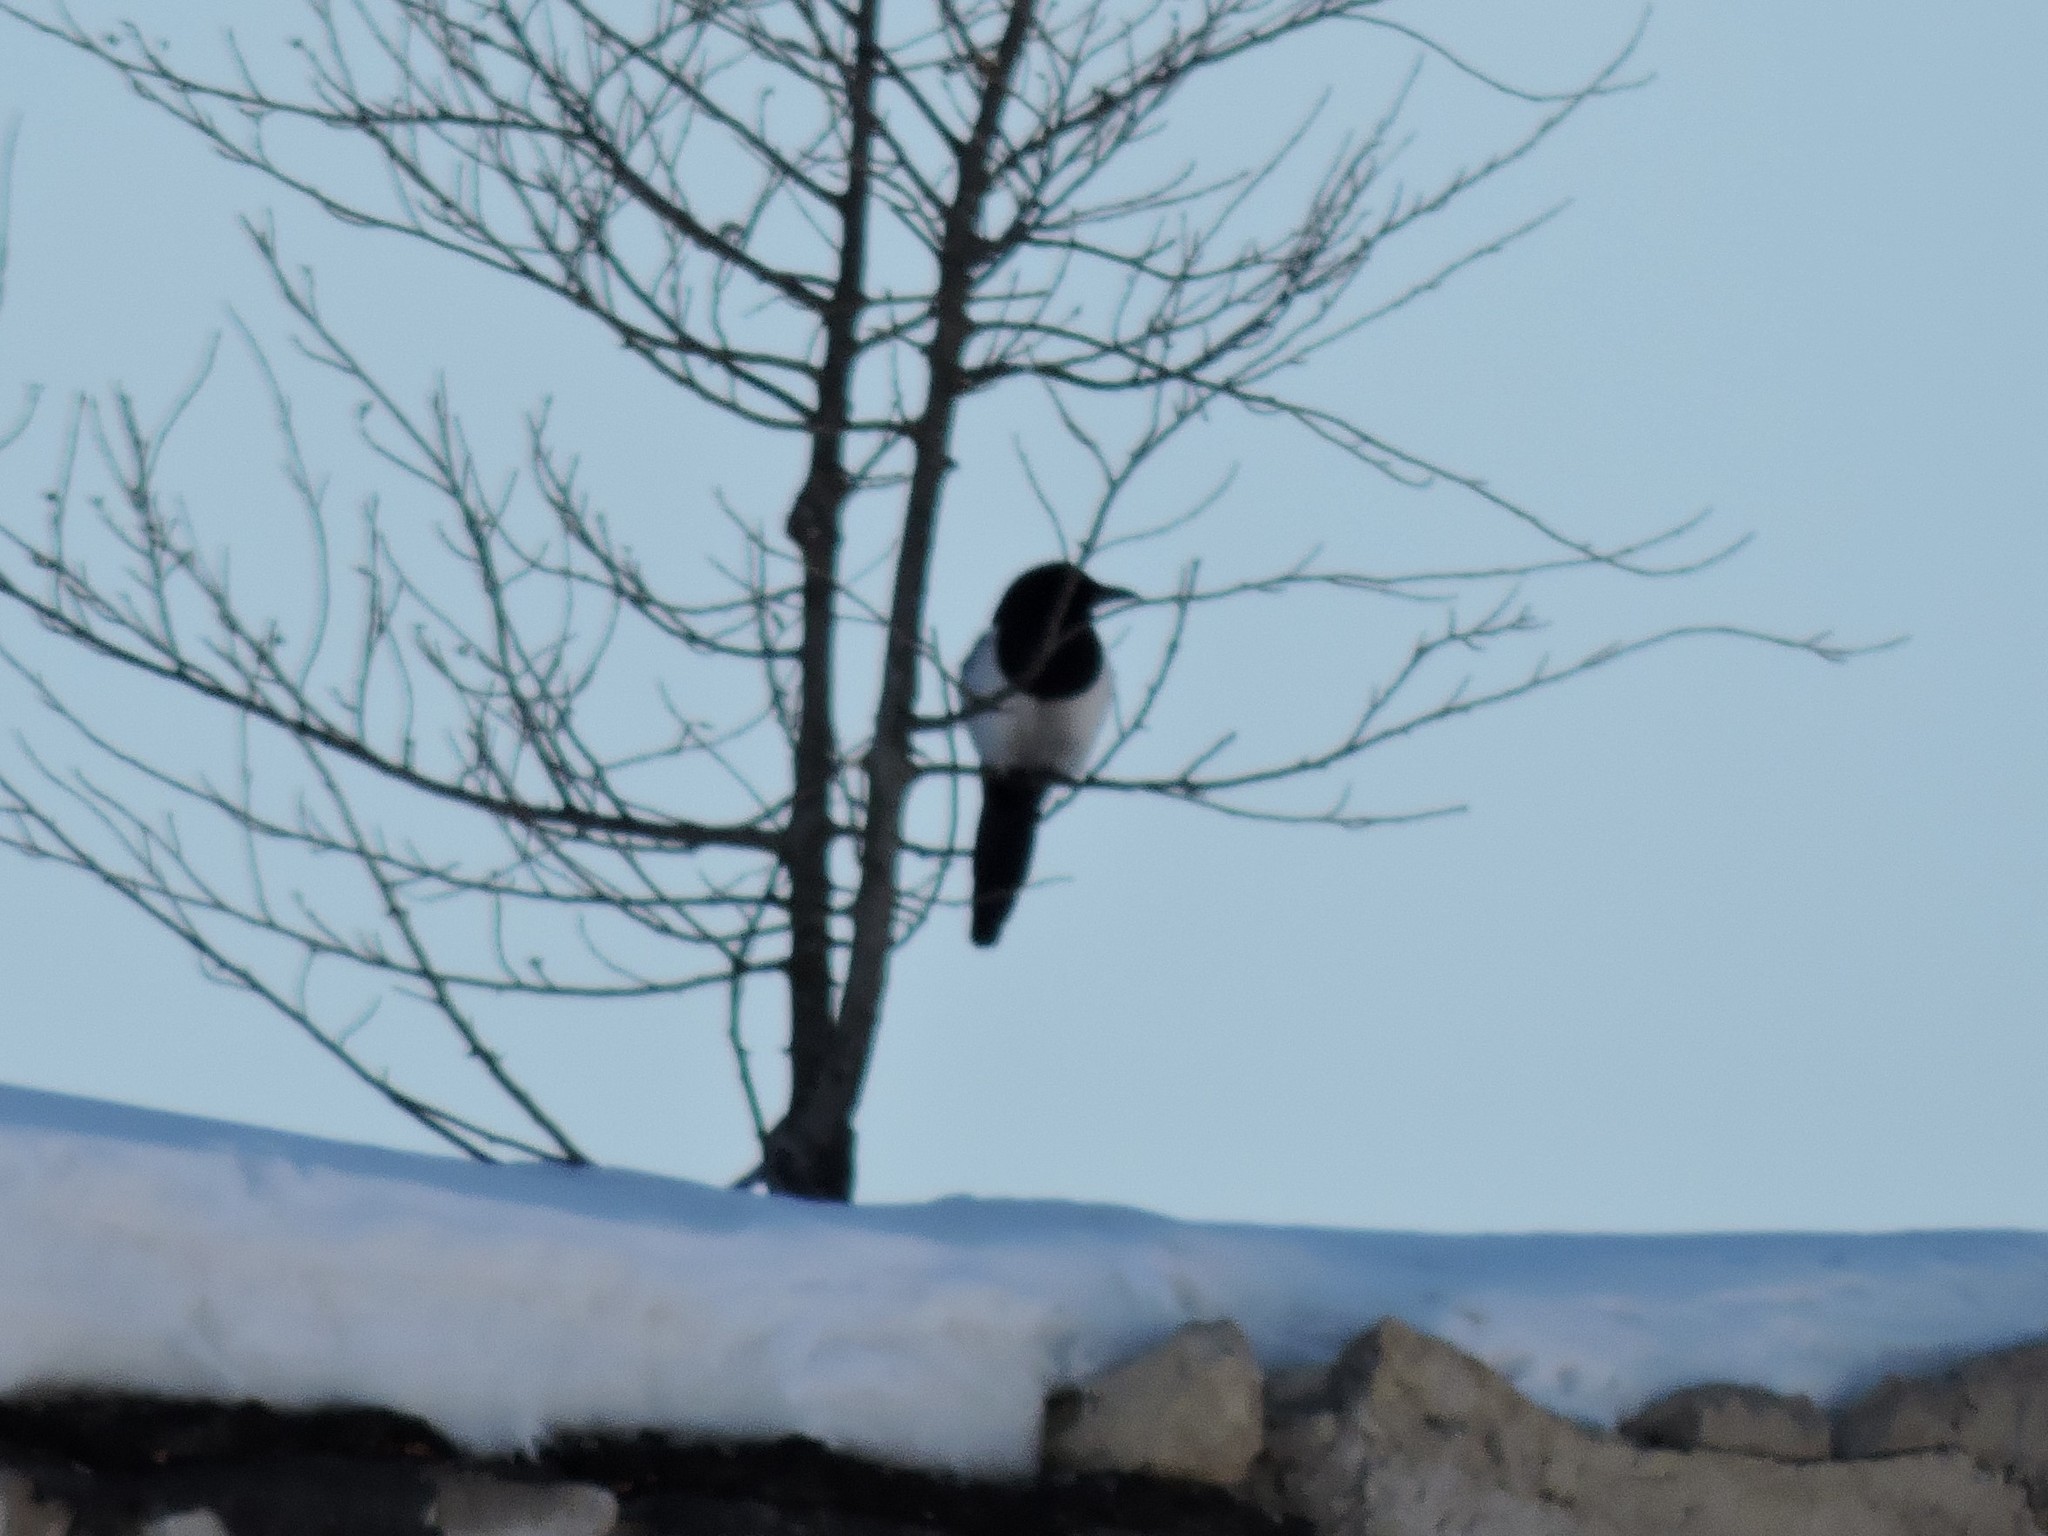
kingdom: Animalia
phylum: Chordata
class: Aves
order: Passeriformes
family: Corvidae
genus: Pica
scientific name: Pica pica
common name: Eurasian magpie
